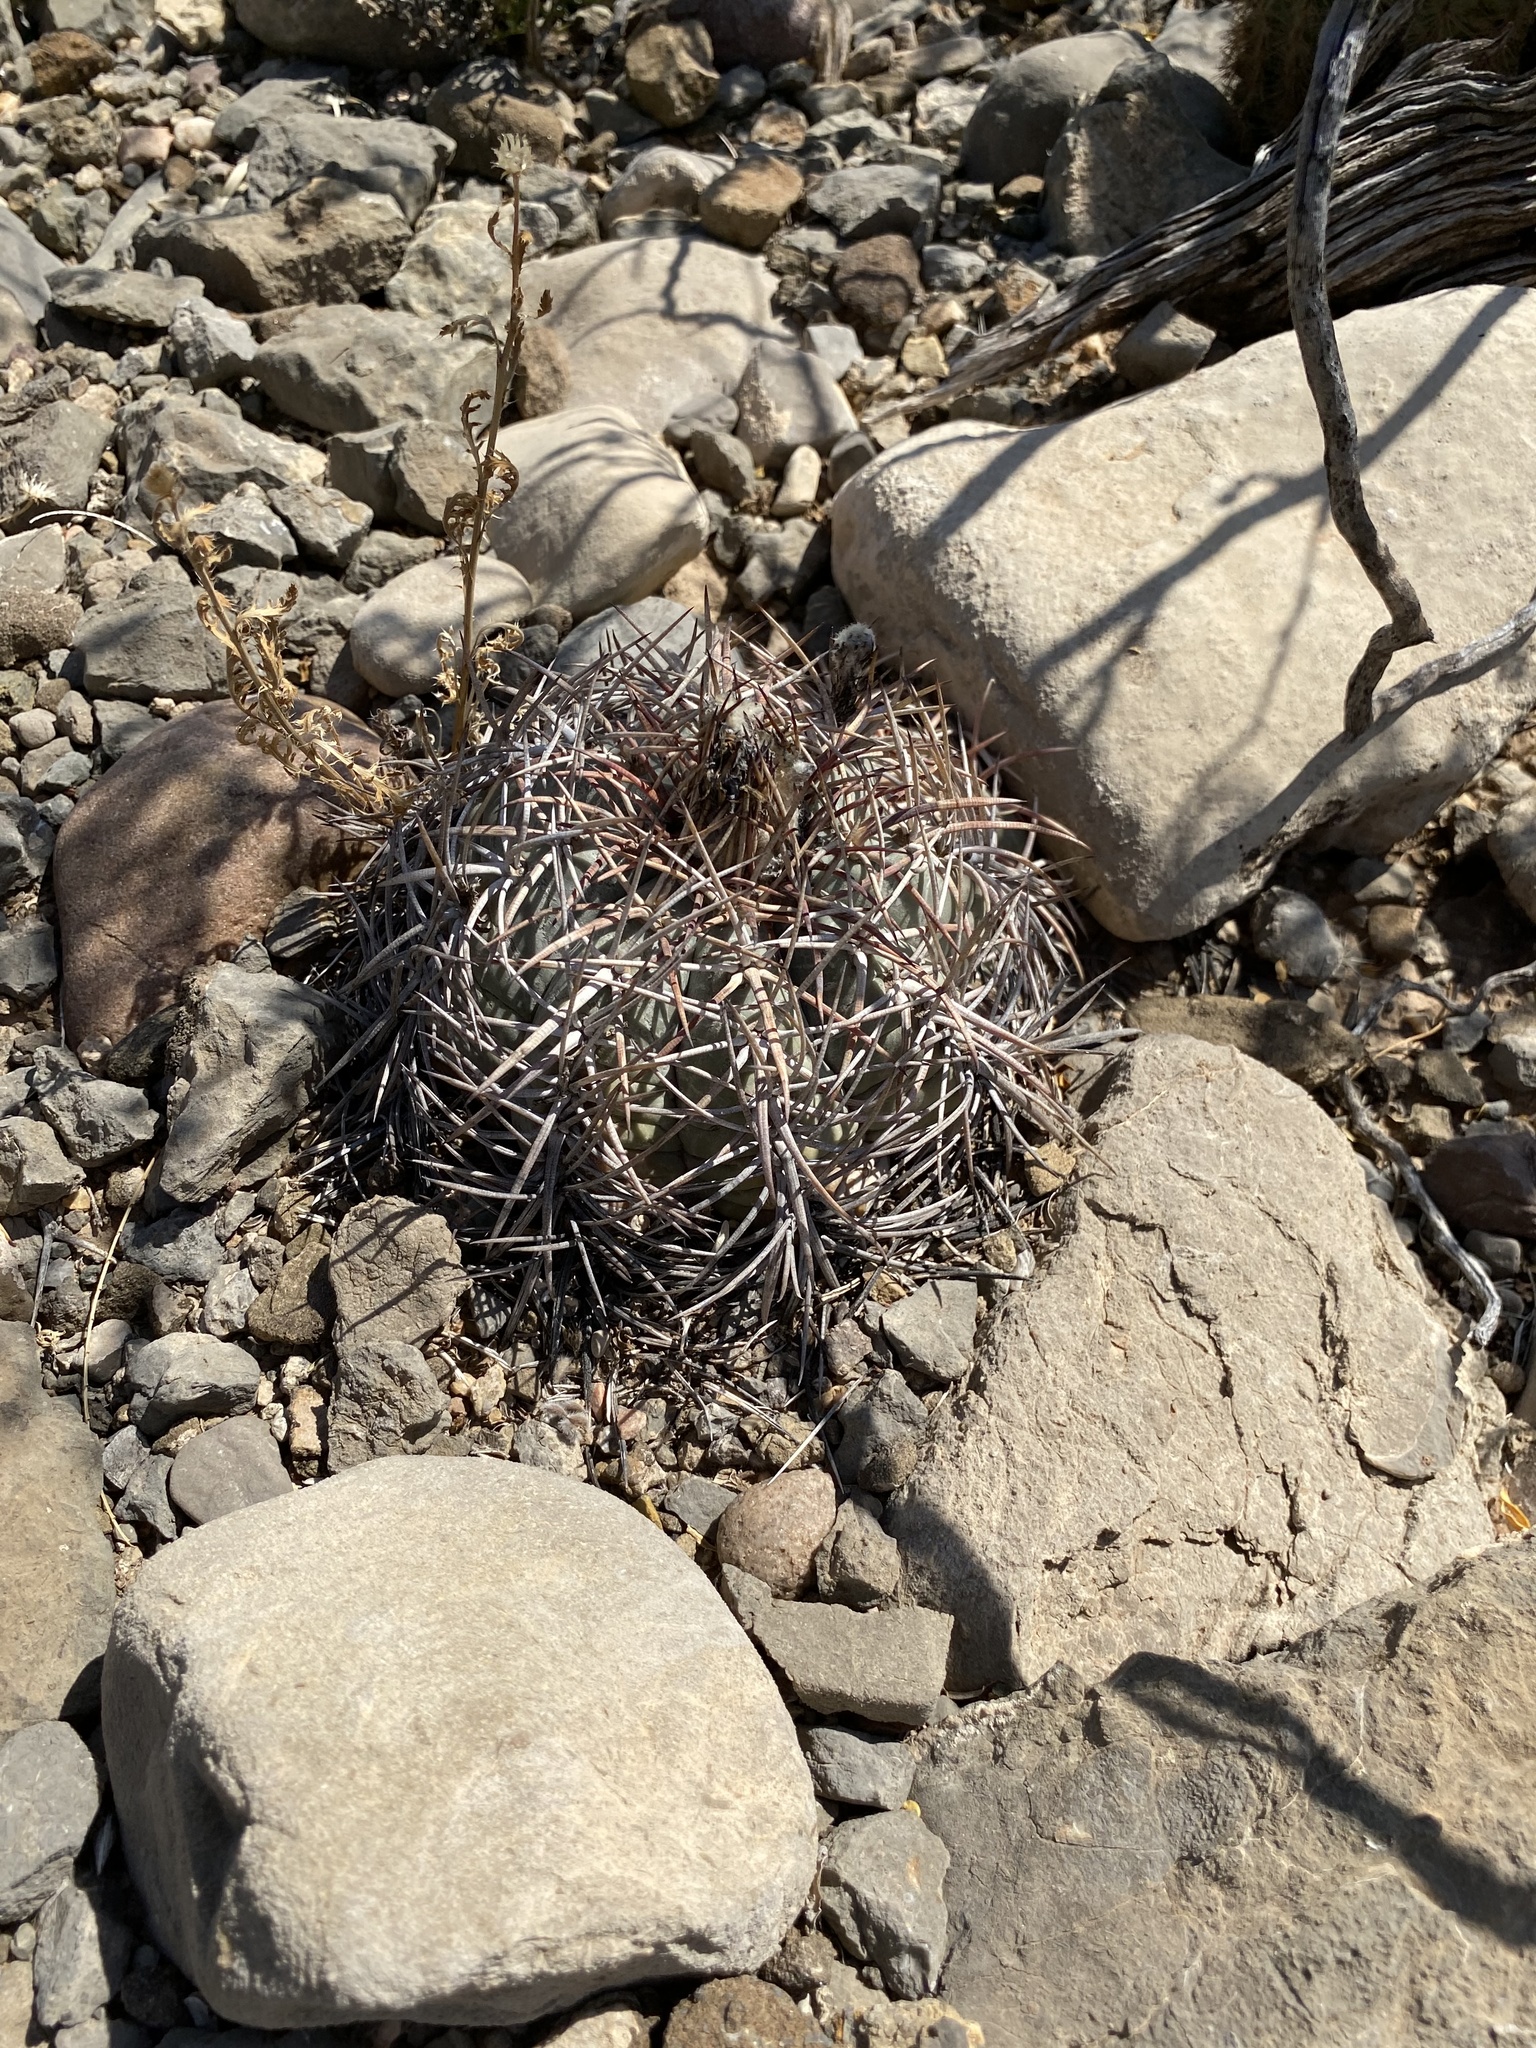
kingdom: Plantae
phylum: Tracheophyta
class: Magnoliopsida
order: Caryophyllales
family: Cactaceae
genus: Echinocactus
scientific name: Echinocactus horizonthalonius
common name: Devilshead
